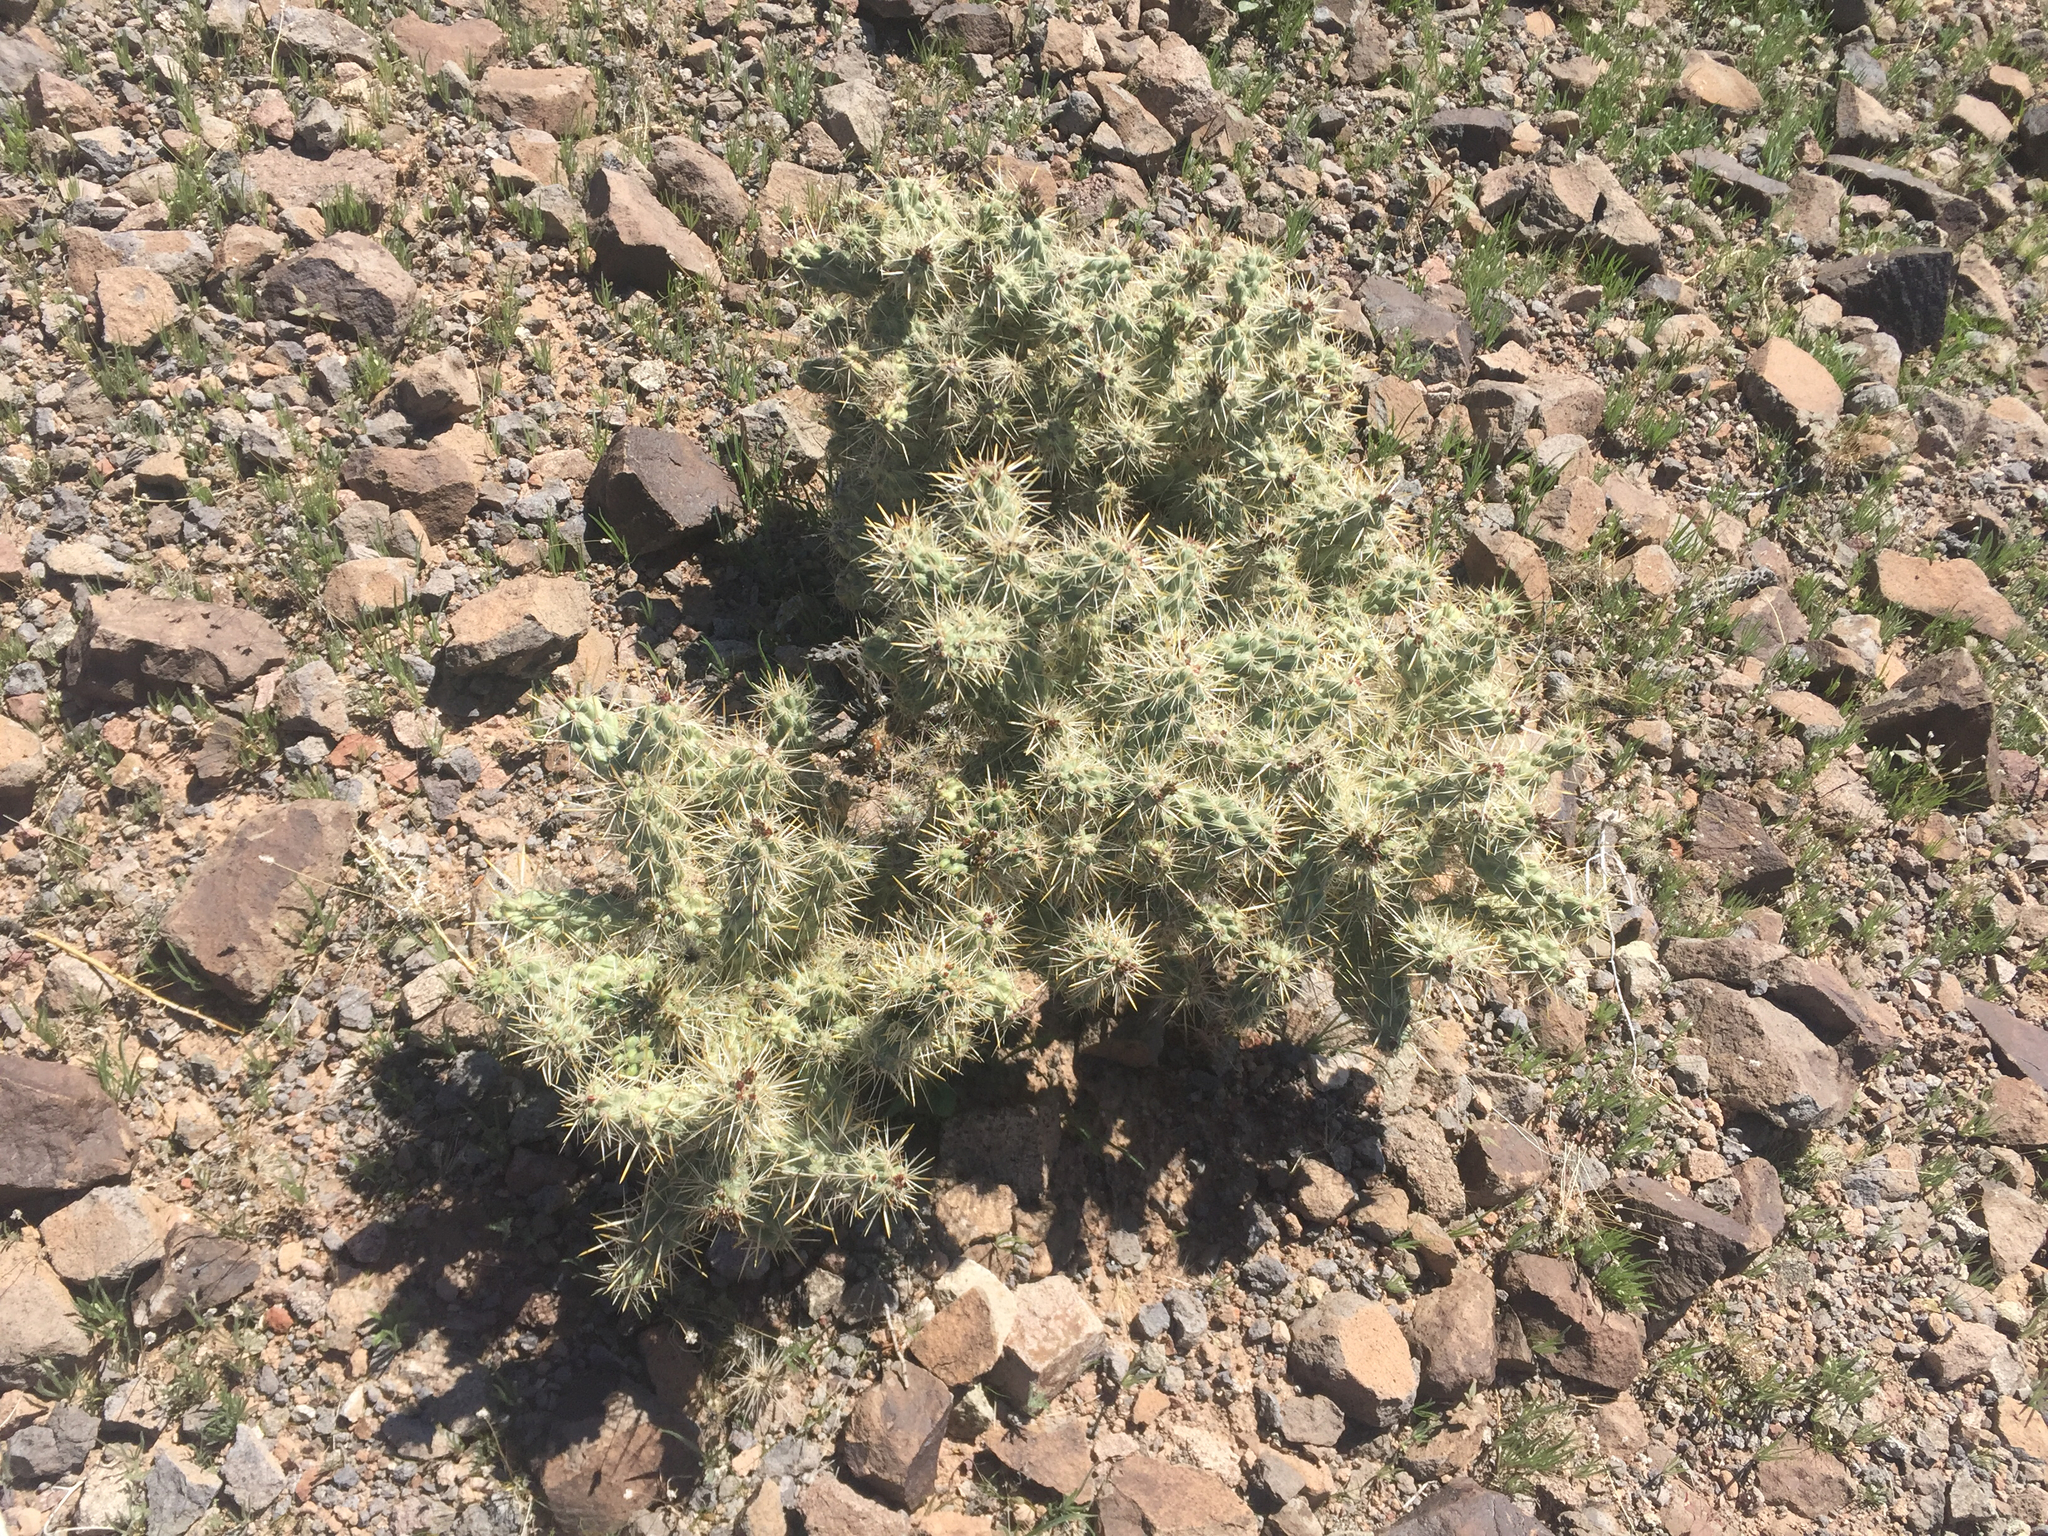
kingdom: Plantae
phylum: Tracheophyta
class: Magnoliopsida
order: Caryophyllales
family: Cactaceae
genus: Cylindropuntia
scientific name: Cylindropuntia echinocarpa
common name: Ground cholla
